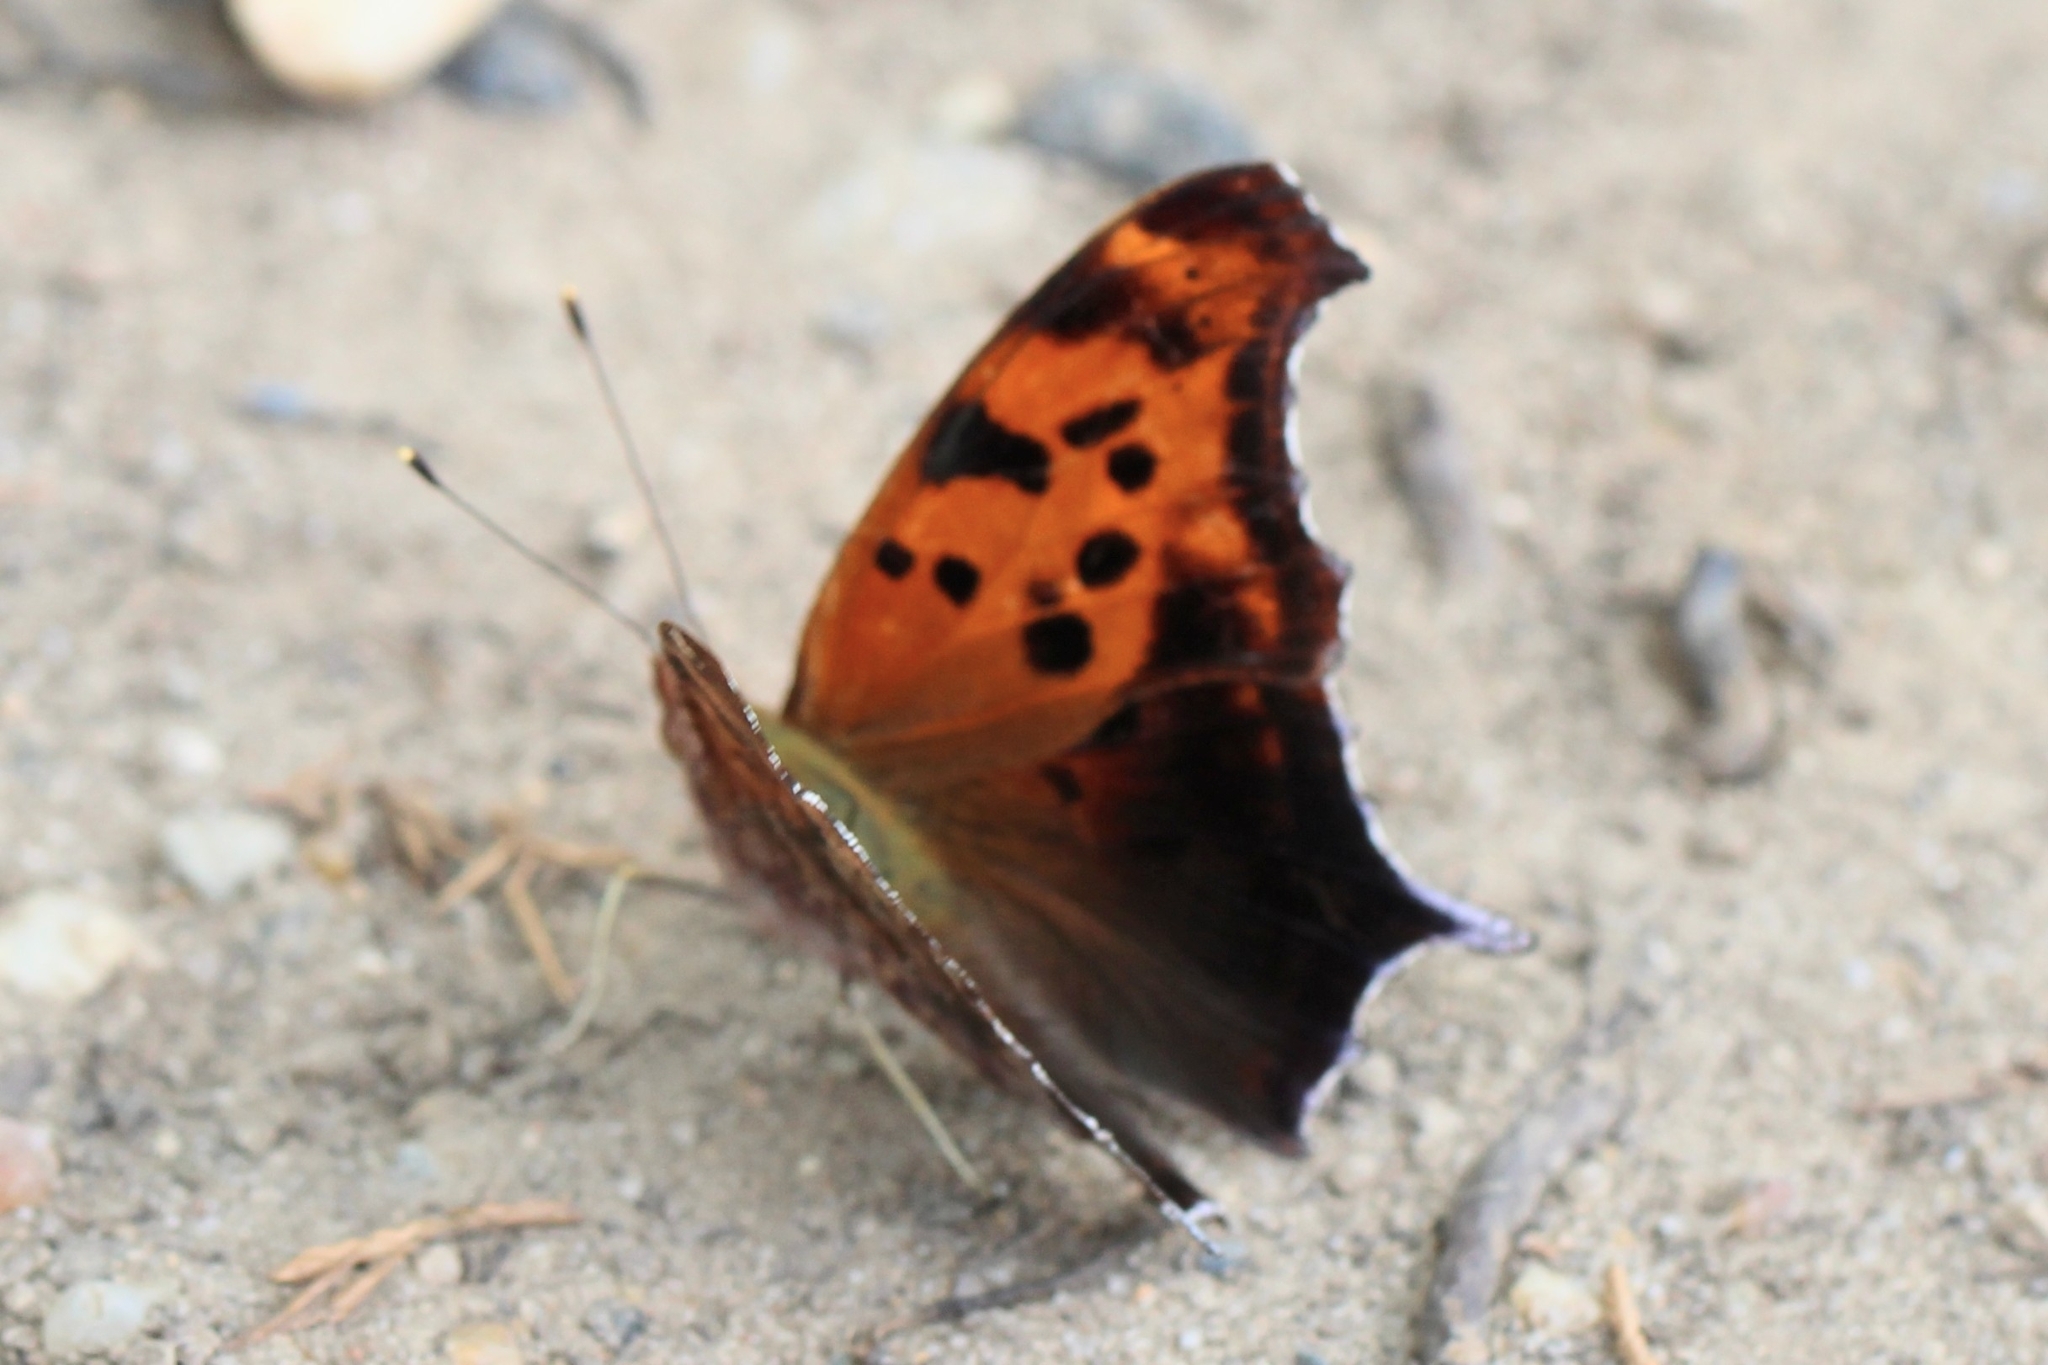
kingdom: Animalia
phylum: Arthropoda
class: Insecta
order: Lepidoptera
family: Nymphalidae
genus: Polygonia
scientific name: Polygonia interrogationis
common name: Question mark
